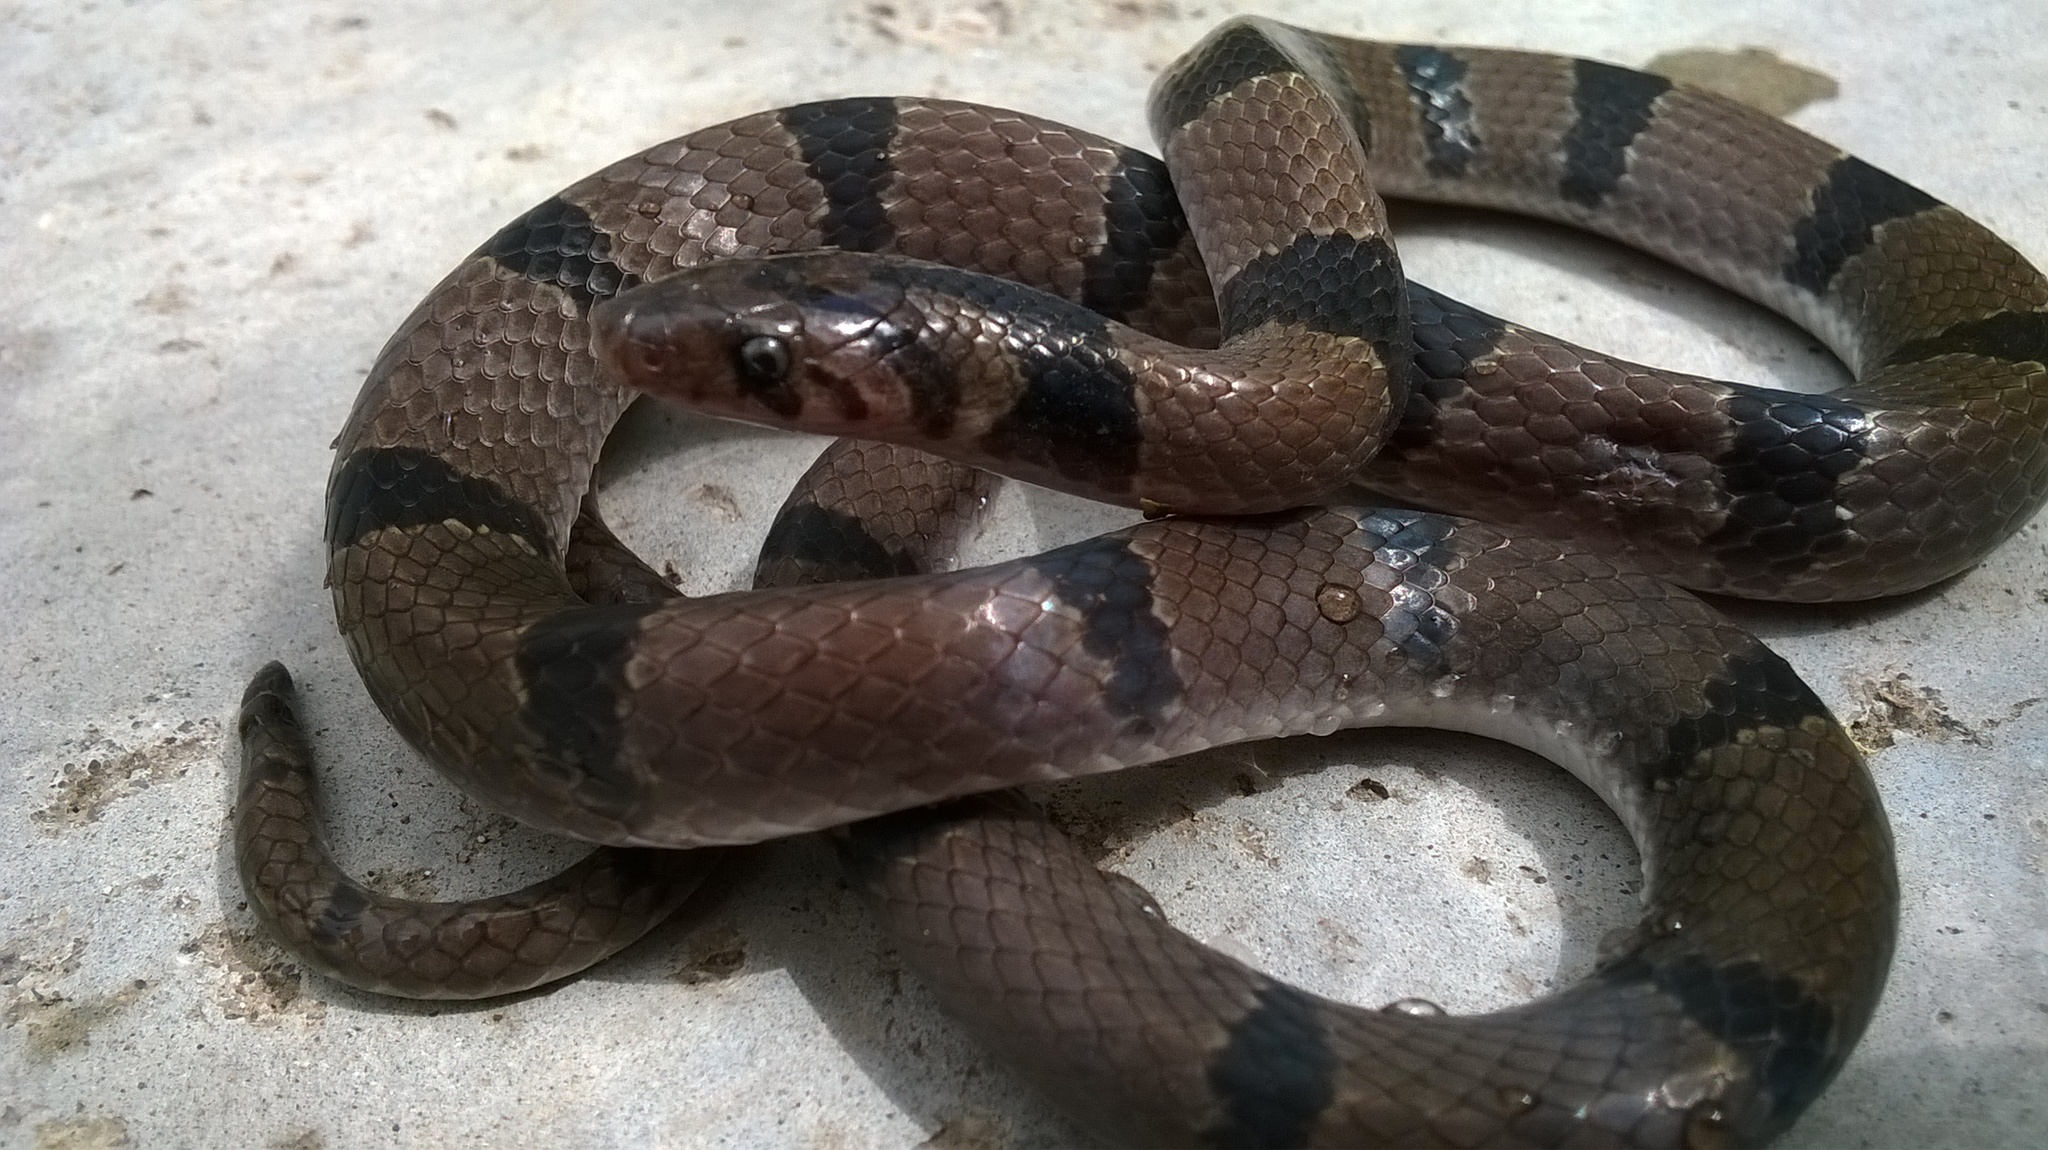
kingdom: Animalia
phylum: Chordata
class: Squamata
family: Colubridae
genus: Oligodon
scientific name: Oligodon tillacki
